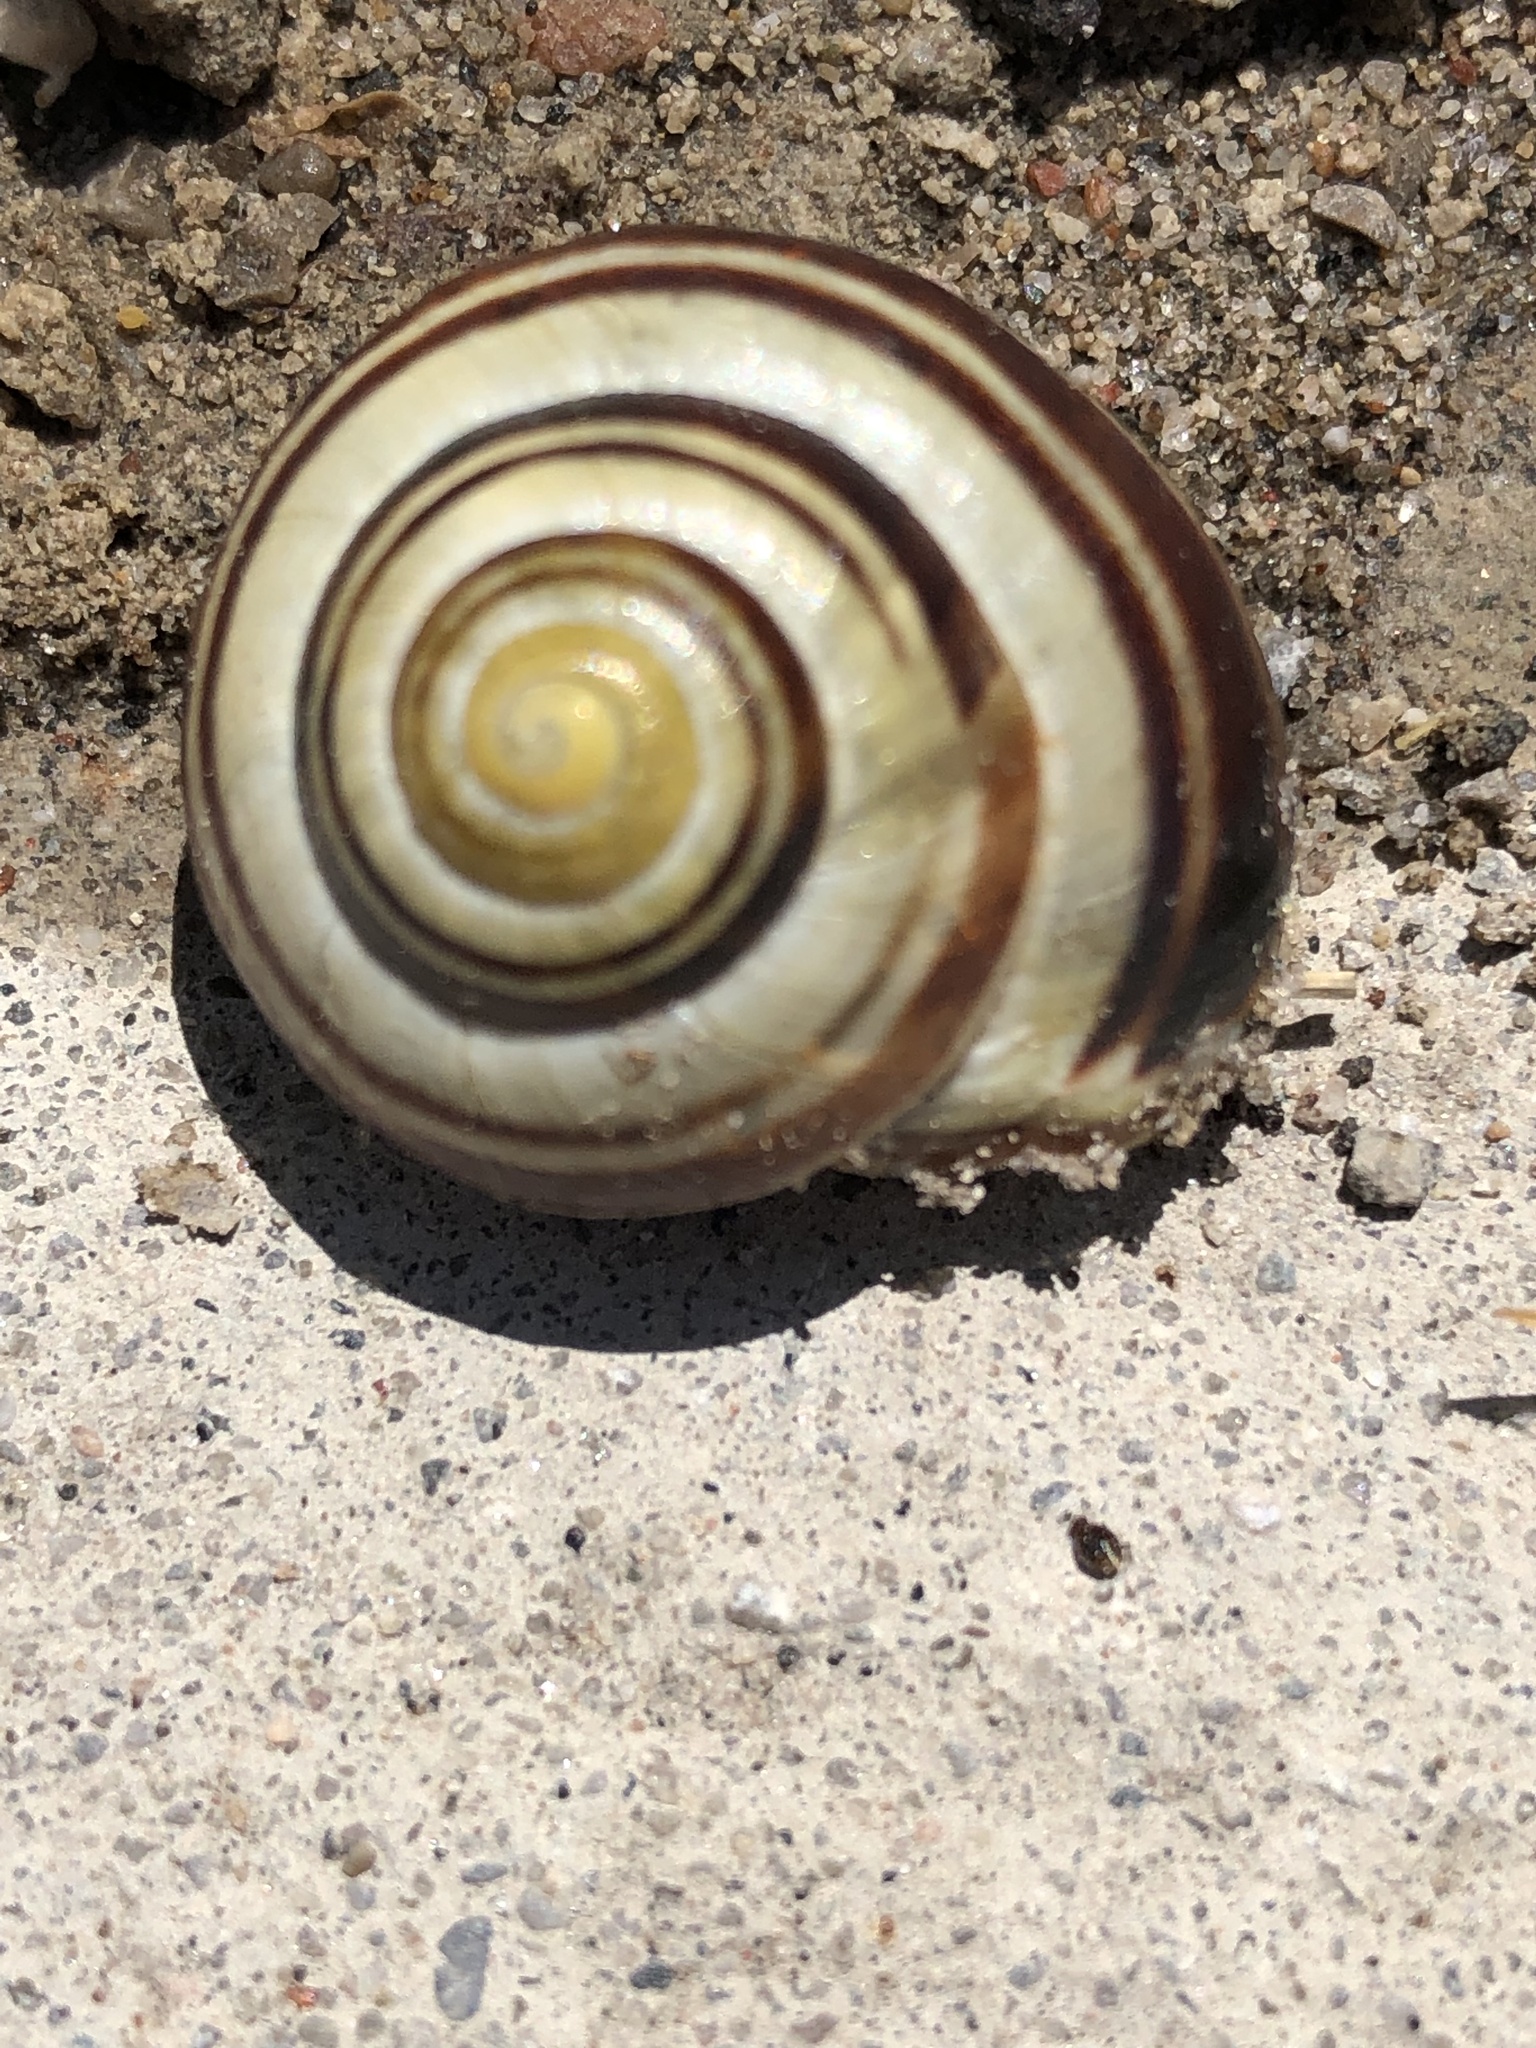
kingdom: Animalia
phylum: Mollusca
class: Gastropoda
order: Stylommatophora
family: Helicidae
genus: Cepaea
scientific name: Cepaea nemoralis
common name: Grovesnail
